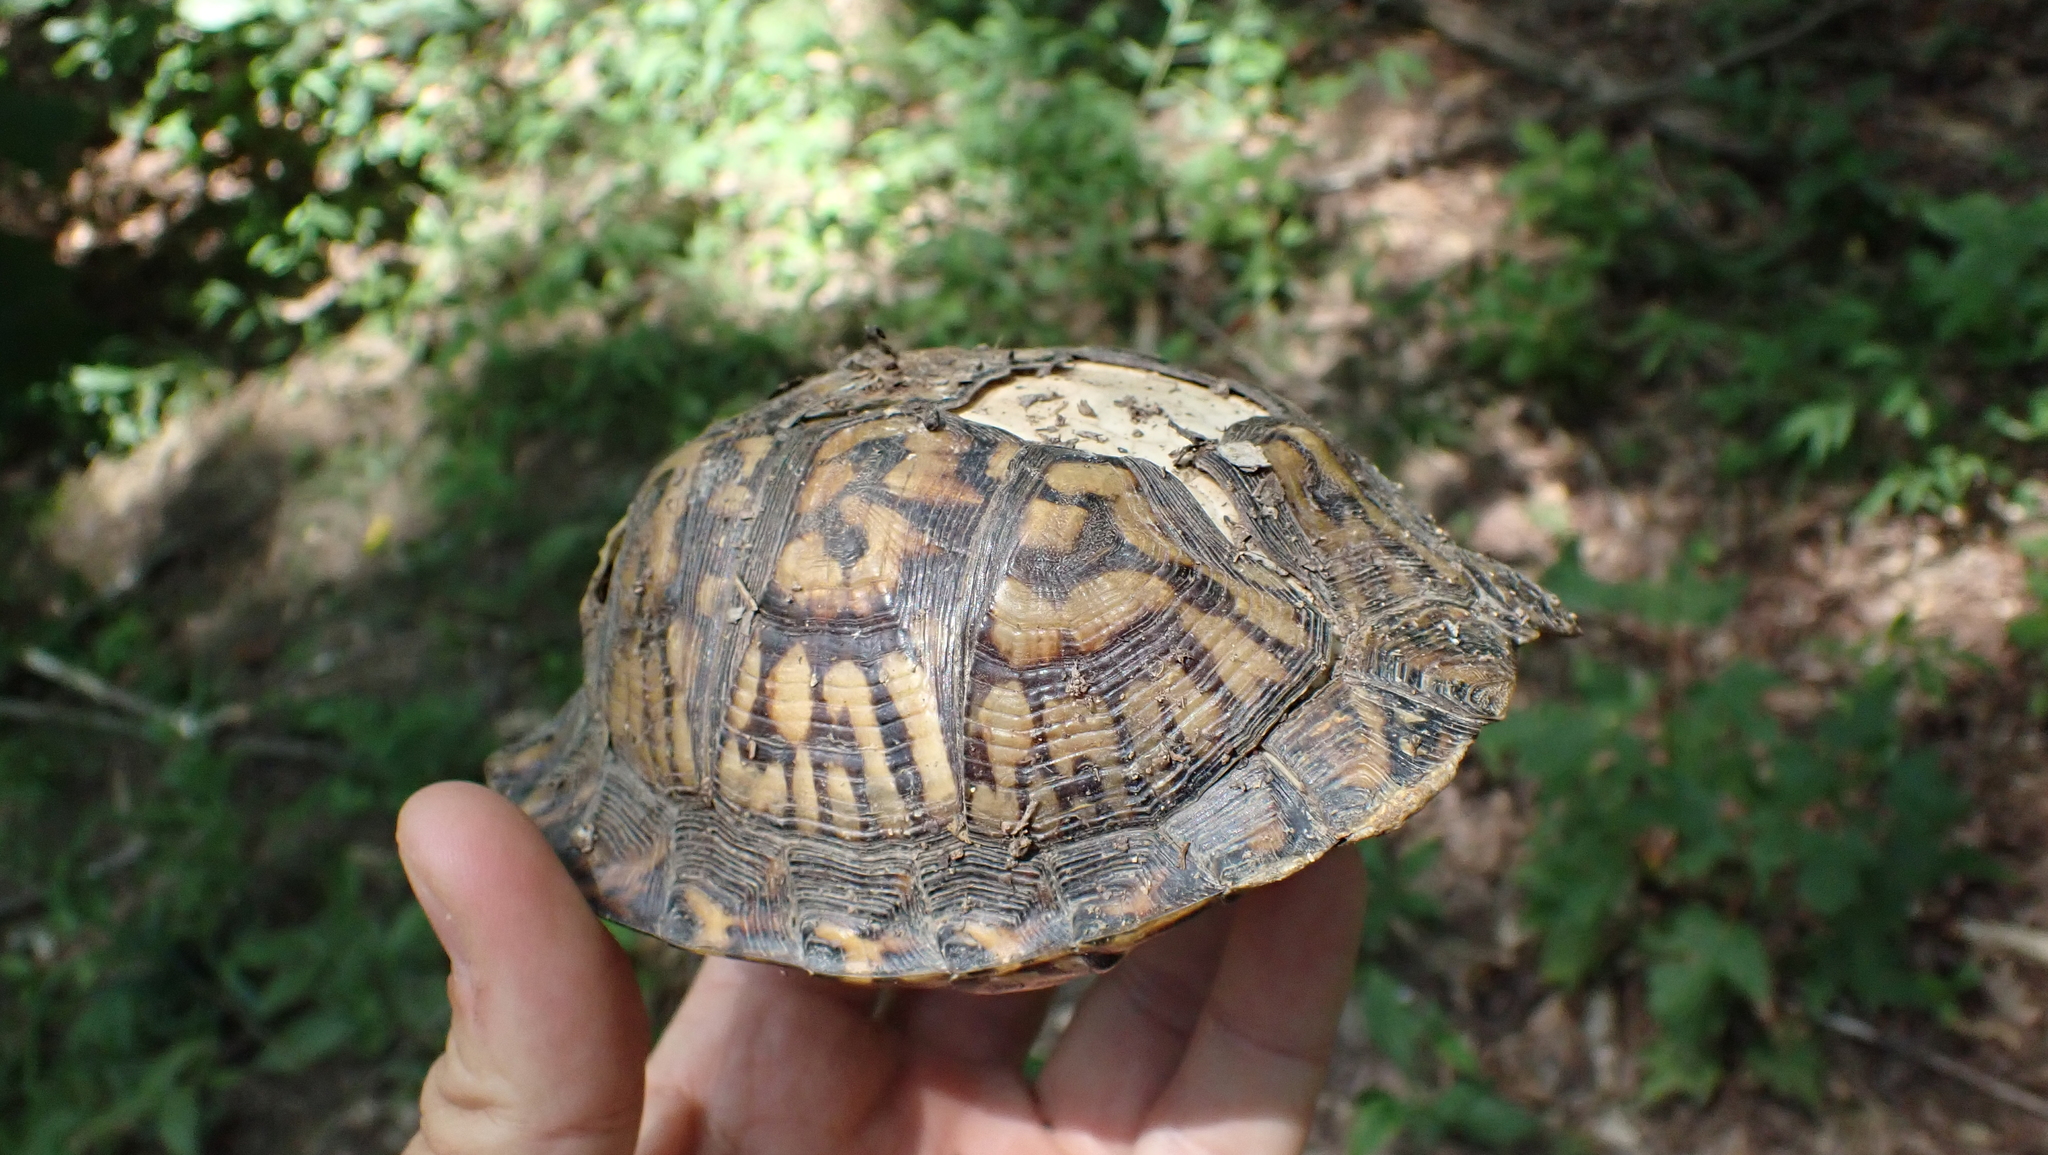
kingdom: Animalia
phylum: Chordata
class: Testudines
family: Emydidae
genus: Terrapene
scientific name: Terrapene carolina
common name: Common box turtle
